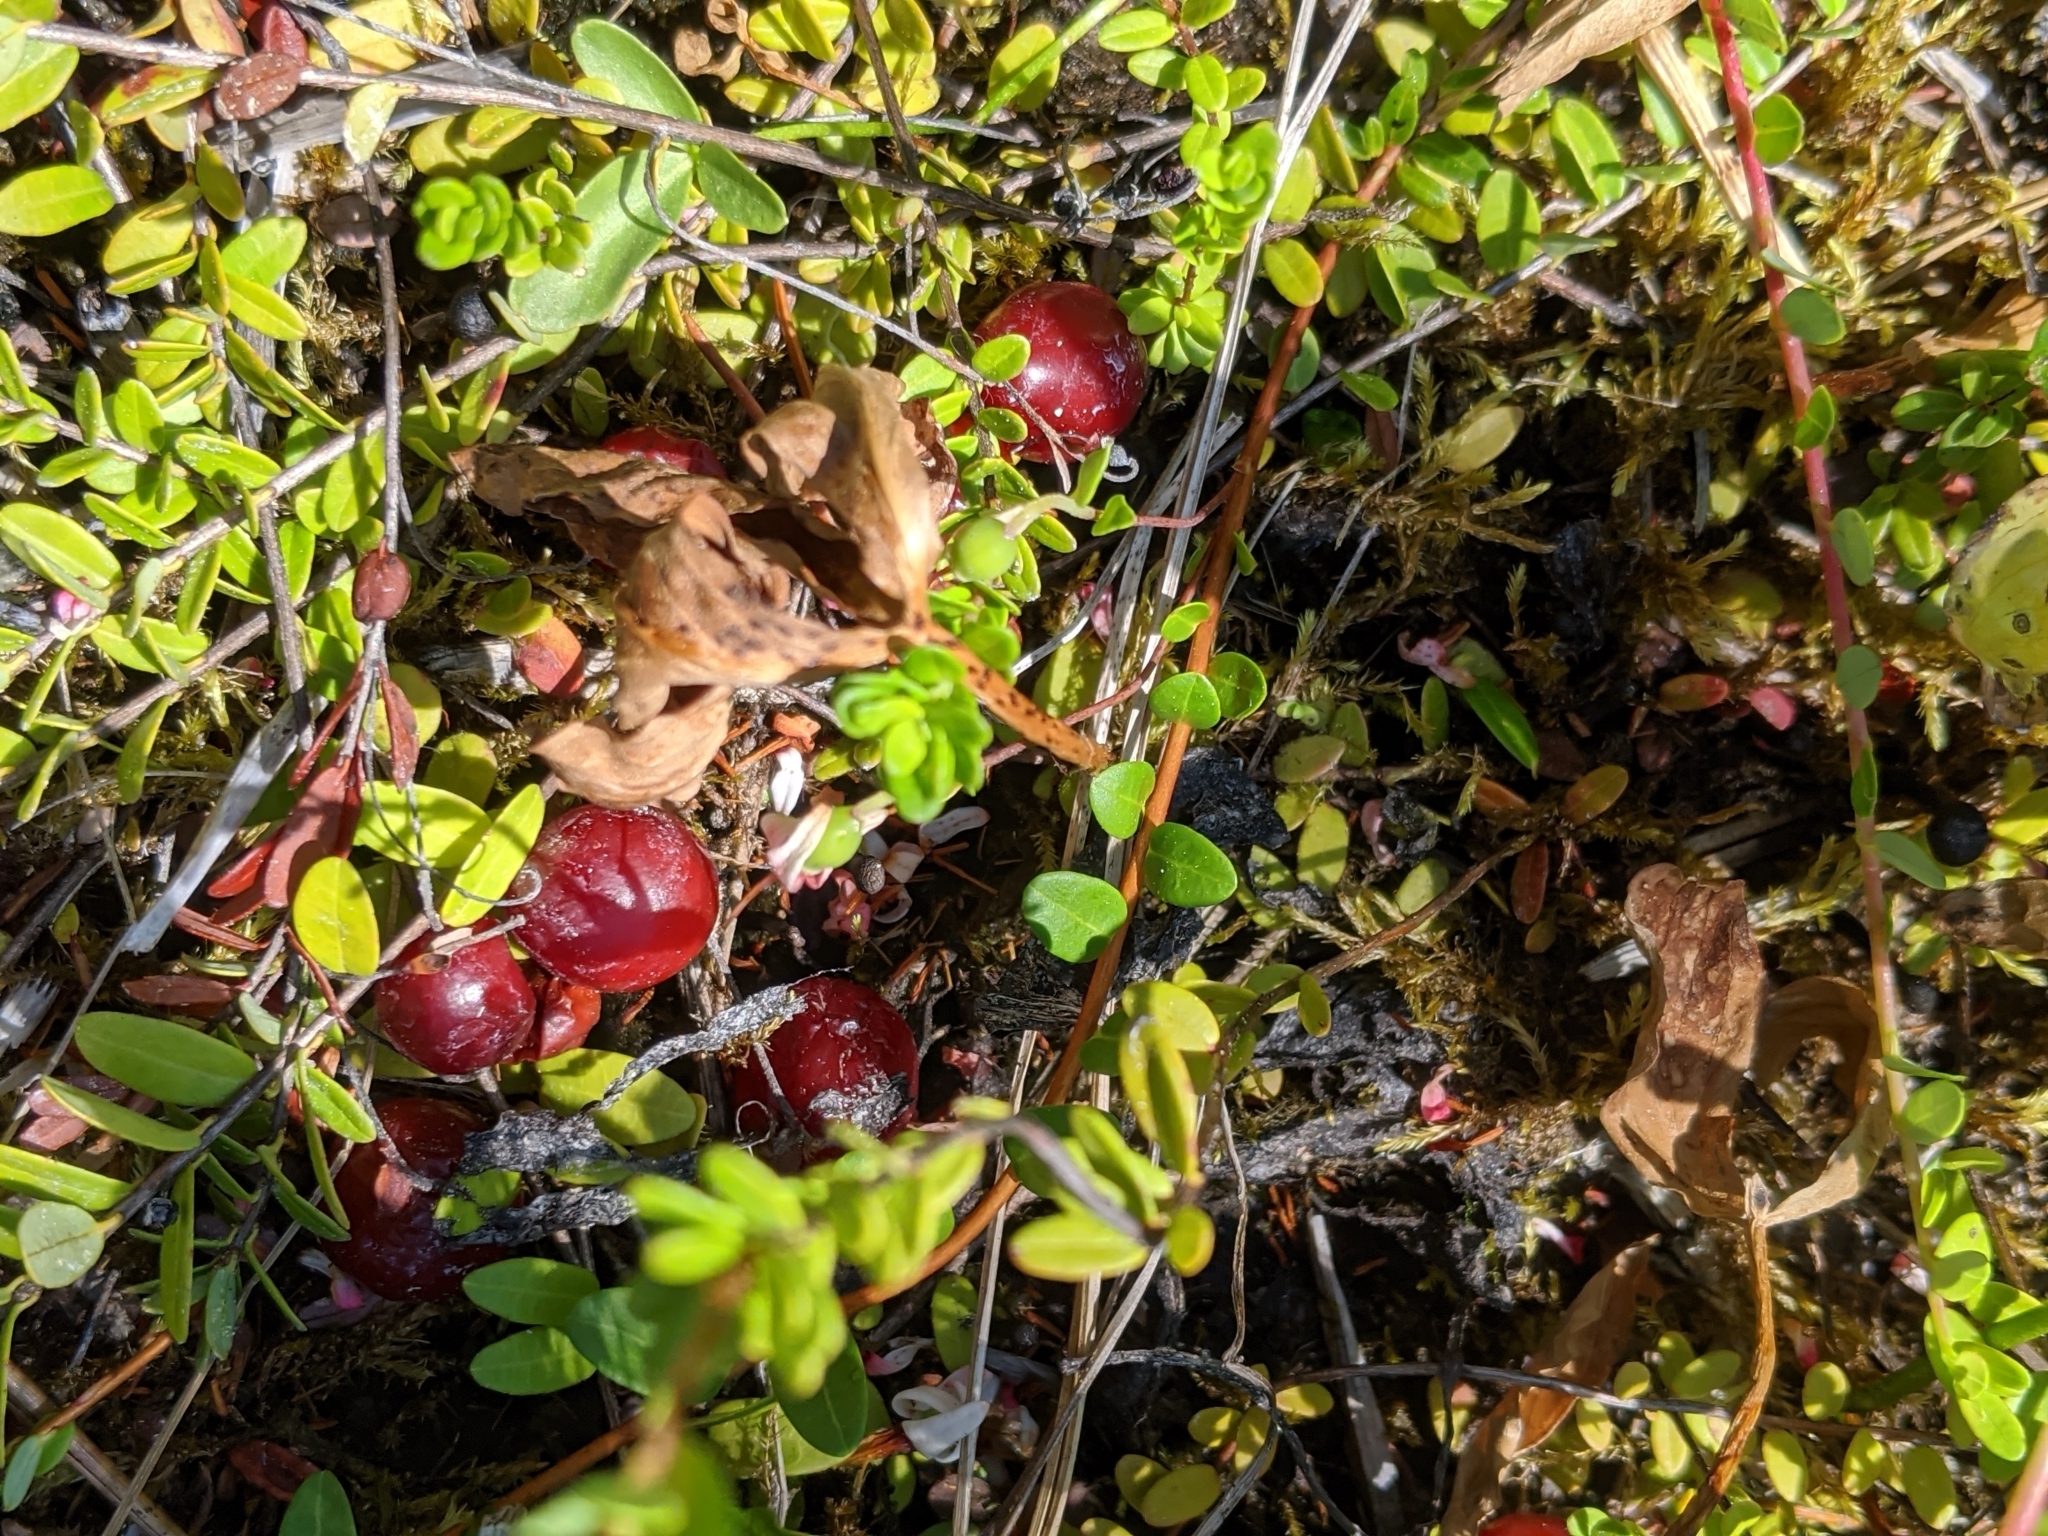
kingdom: Plantae
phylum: Tracheophyta
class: Magnoliopsida
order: Ericales
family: Ericaceae
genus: Vaccinium
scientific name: Vaccinium oxycoccos
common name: Cranberry
